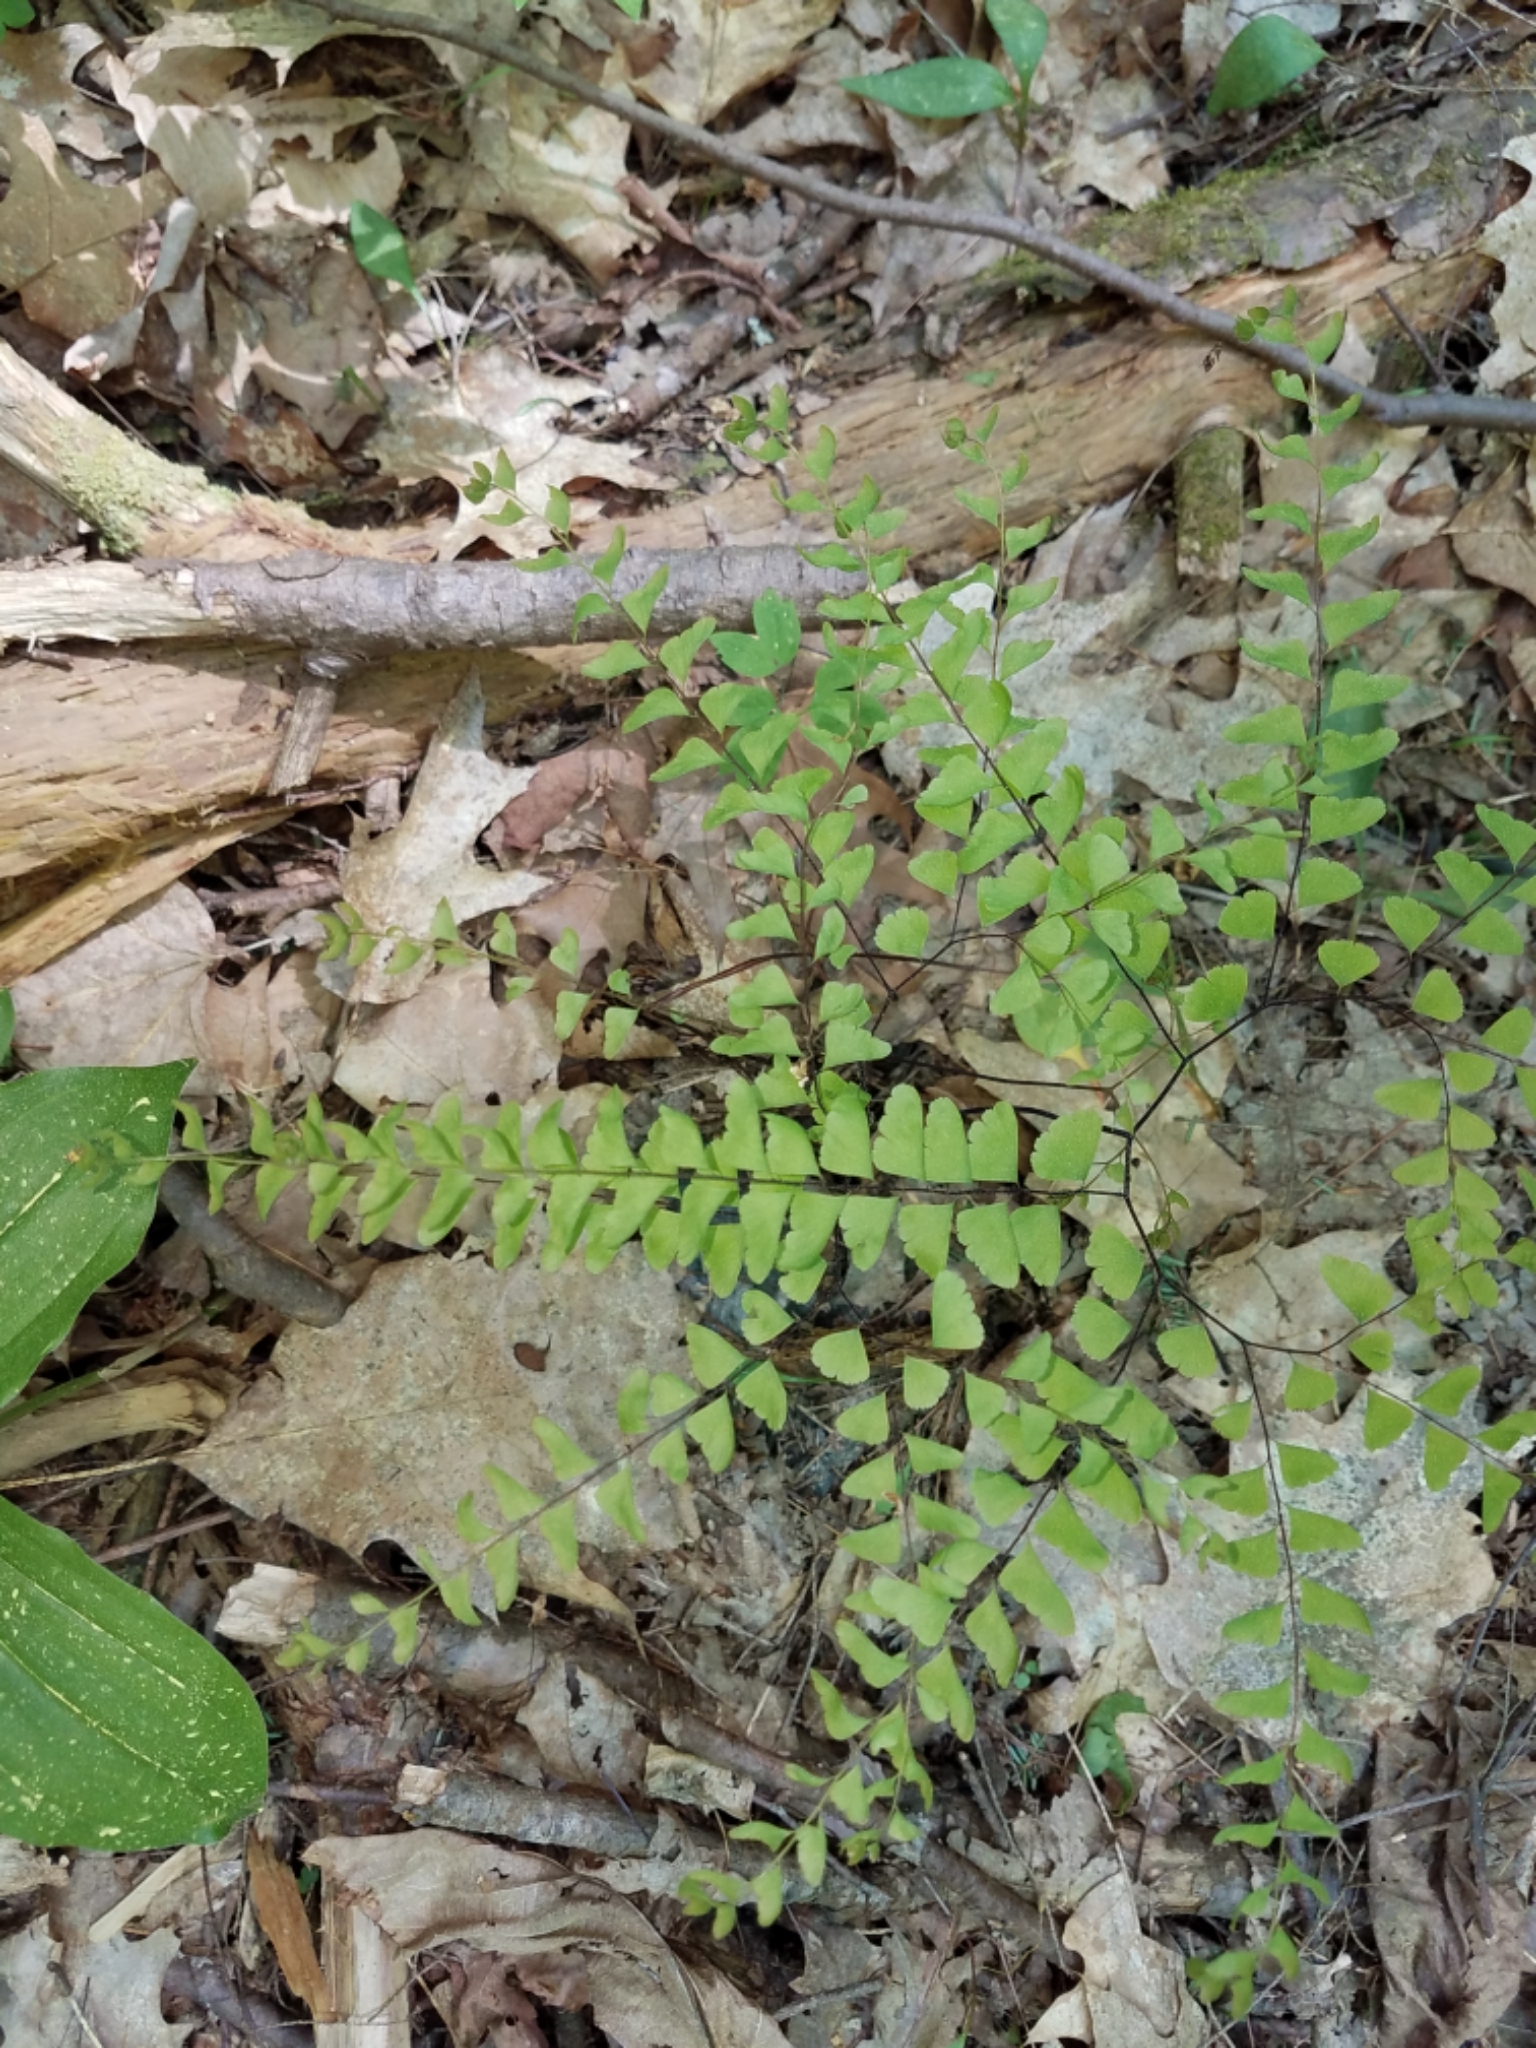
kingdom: Plantae
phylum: Tracheophyta
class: Polypodiopsida
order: Polypodiales
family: Pteridaceae
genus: Adiantum
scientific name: Adiantum pedatum
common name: Five-finger fern
